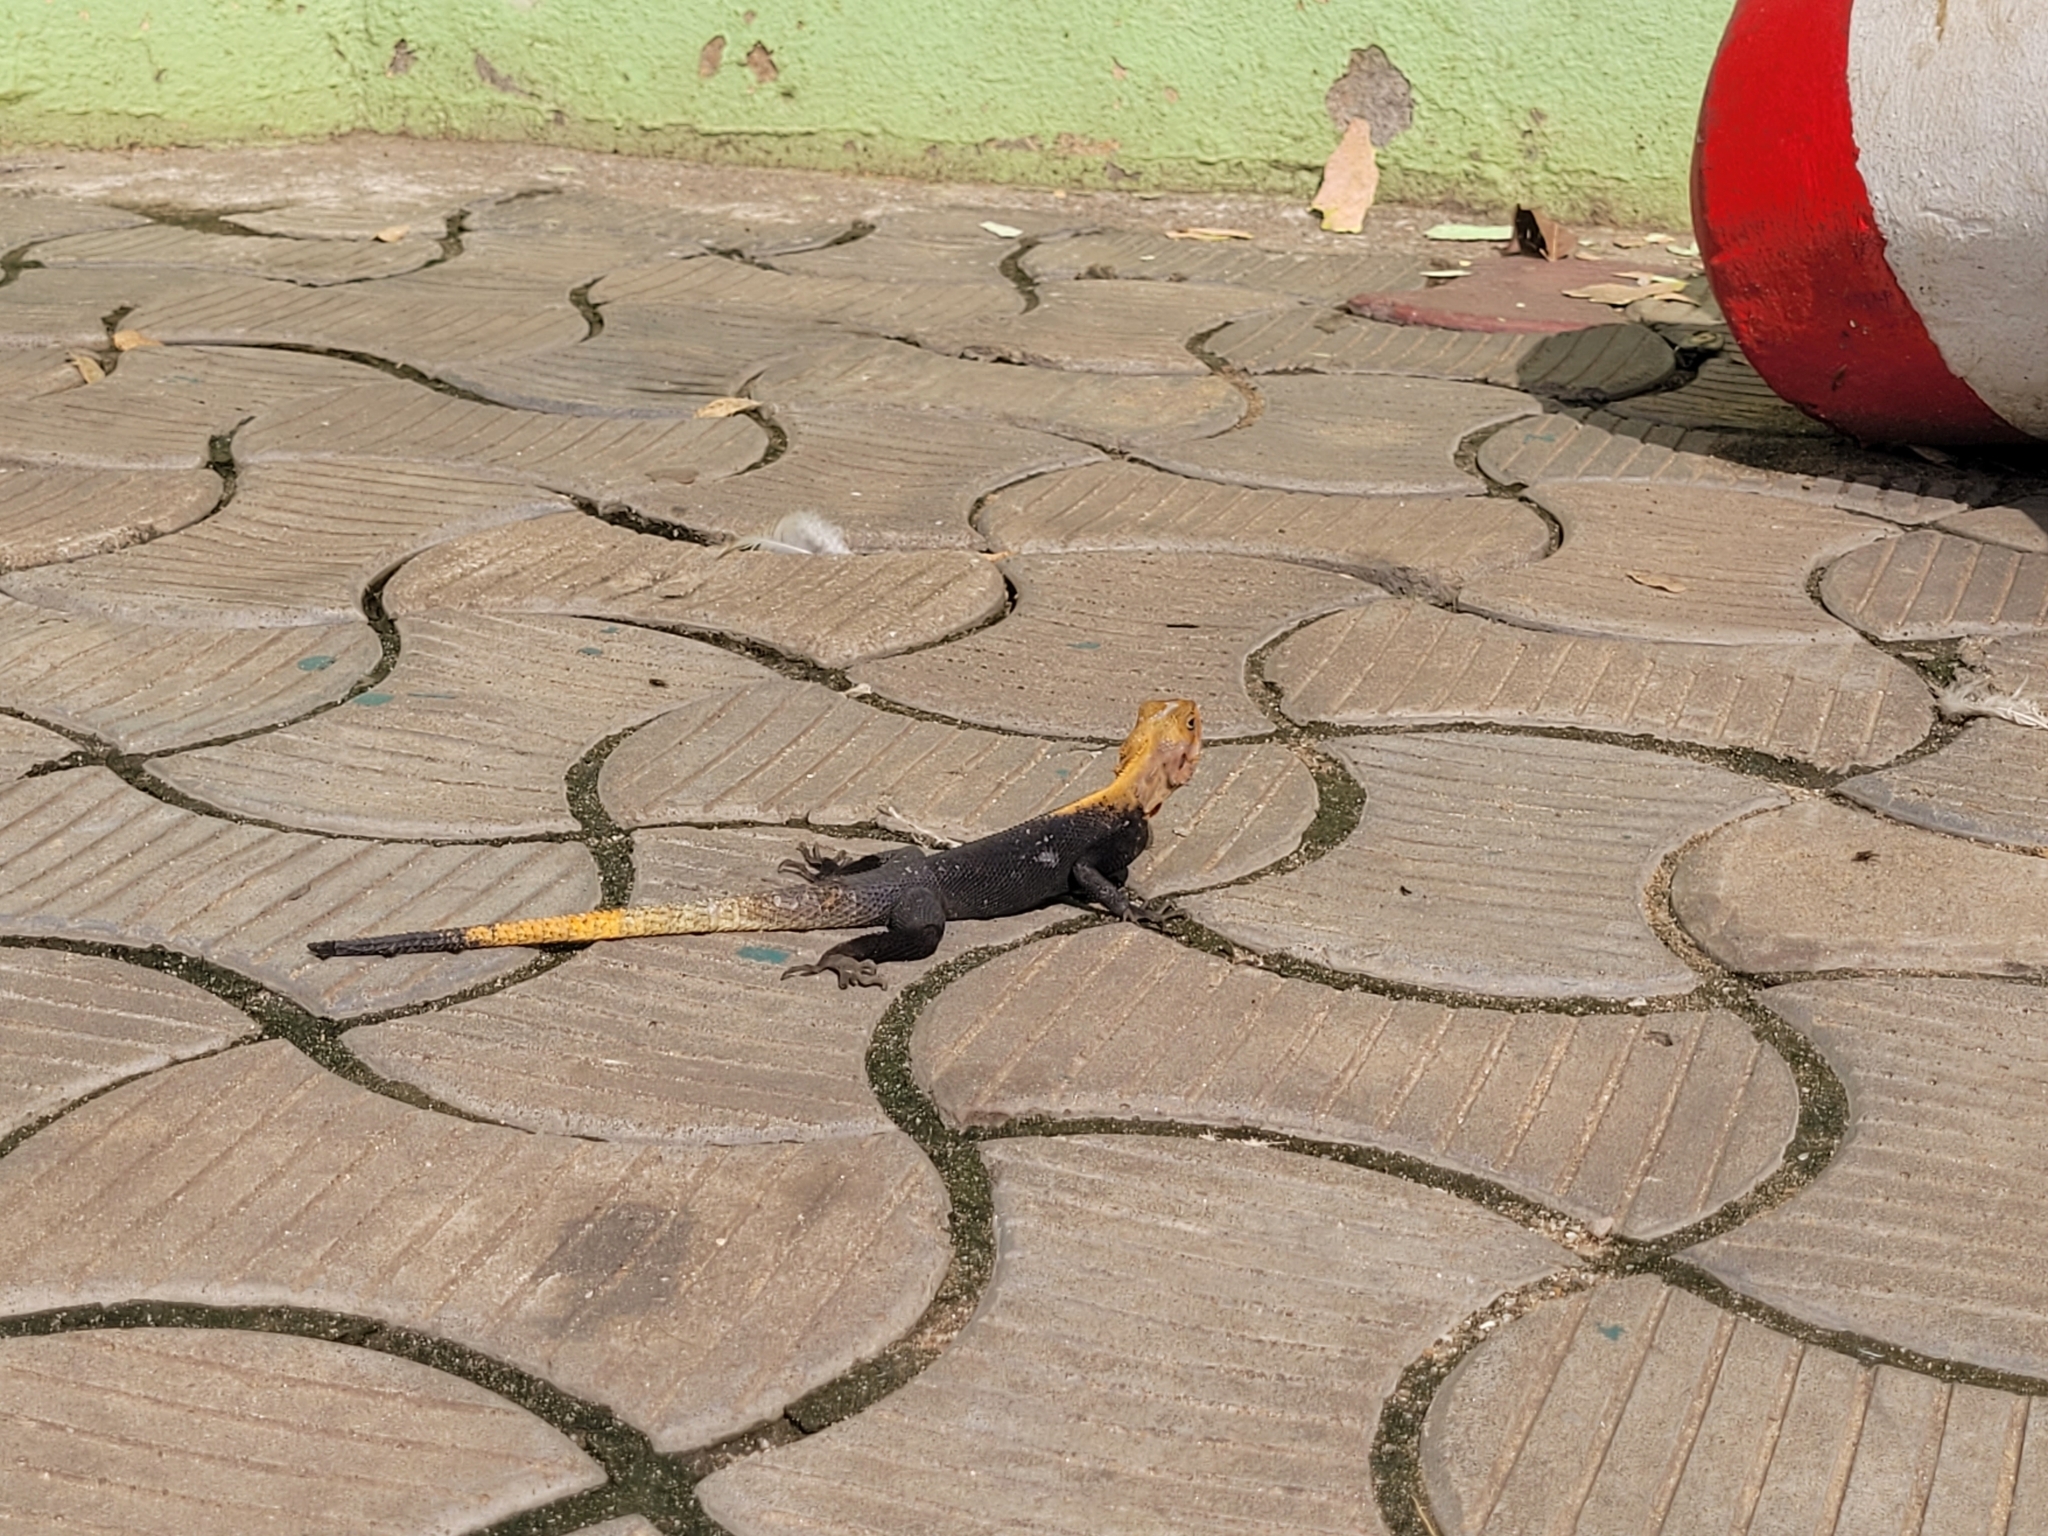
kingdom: Animalia
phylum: Chordata
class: Squamata
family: Agamidae
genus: Agama
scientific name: Agama picticauda
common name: Red-headed agama
